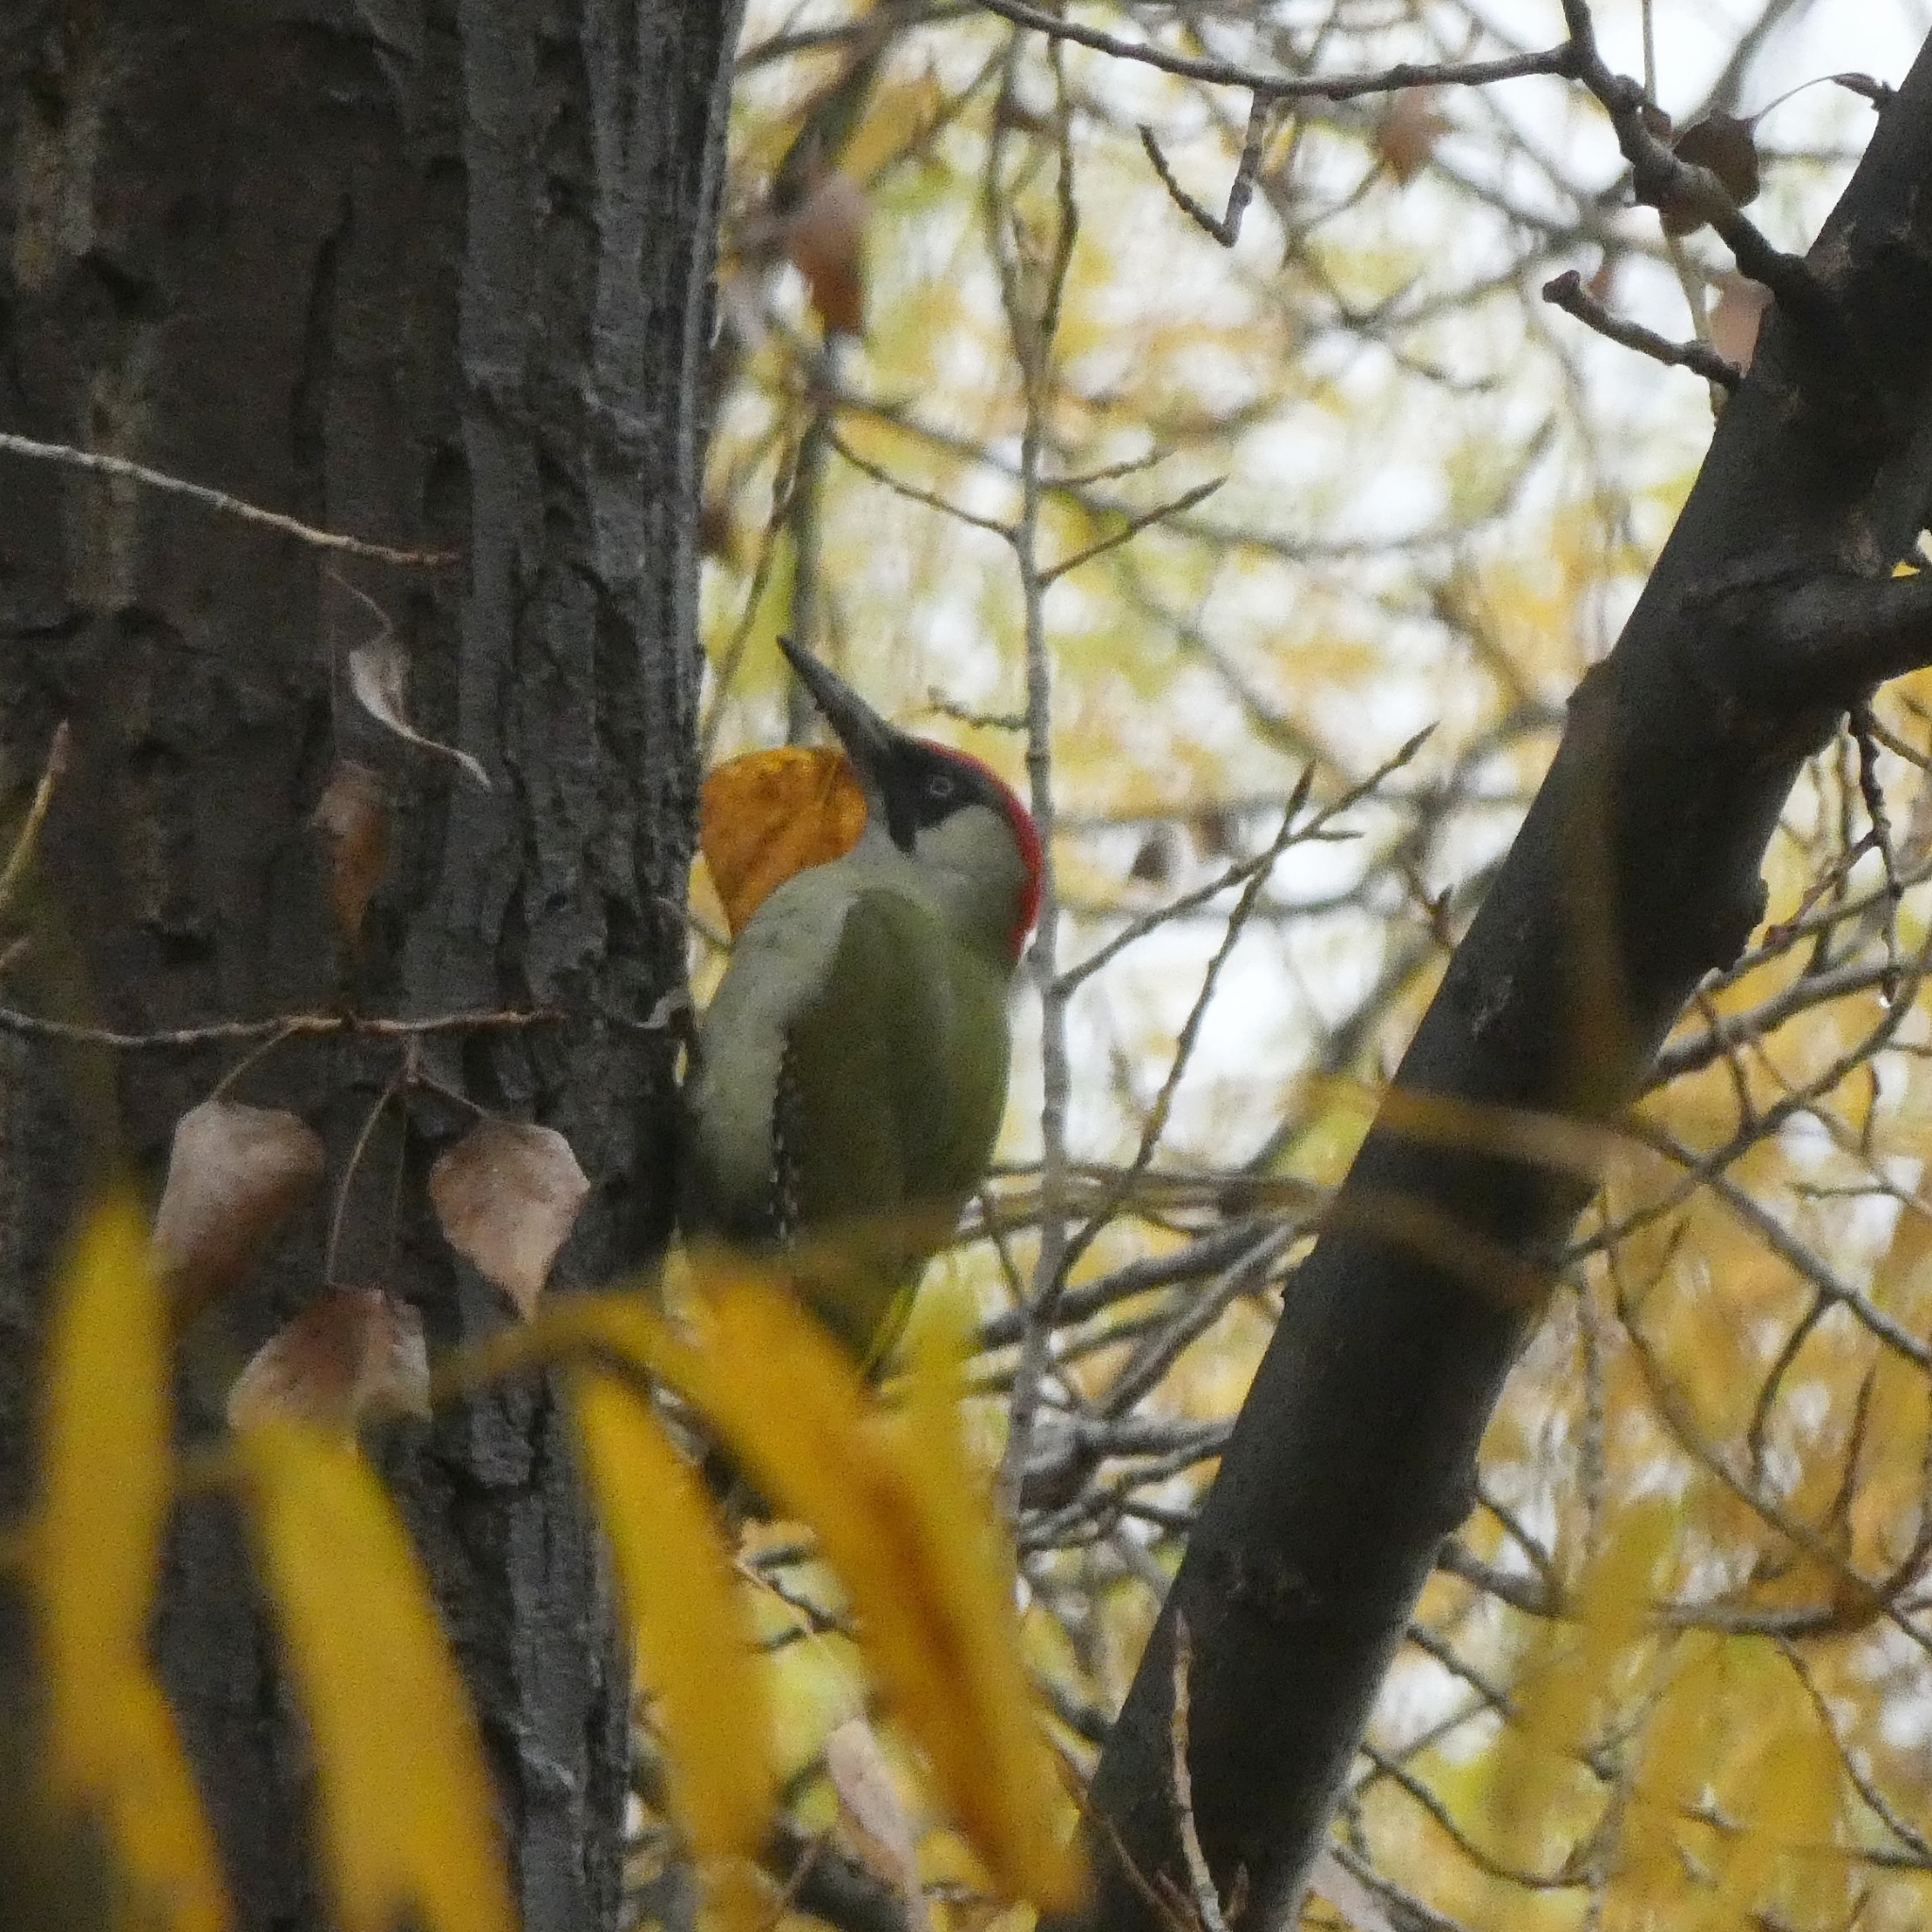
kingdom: Animalia
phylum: Chordata
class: Aves
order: Piciformes
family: Picidae
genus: Picus
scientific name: Picus viridis
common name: European green woodpecker
